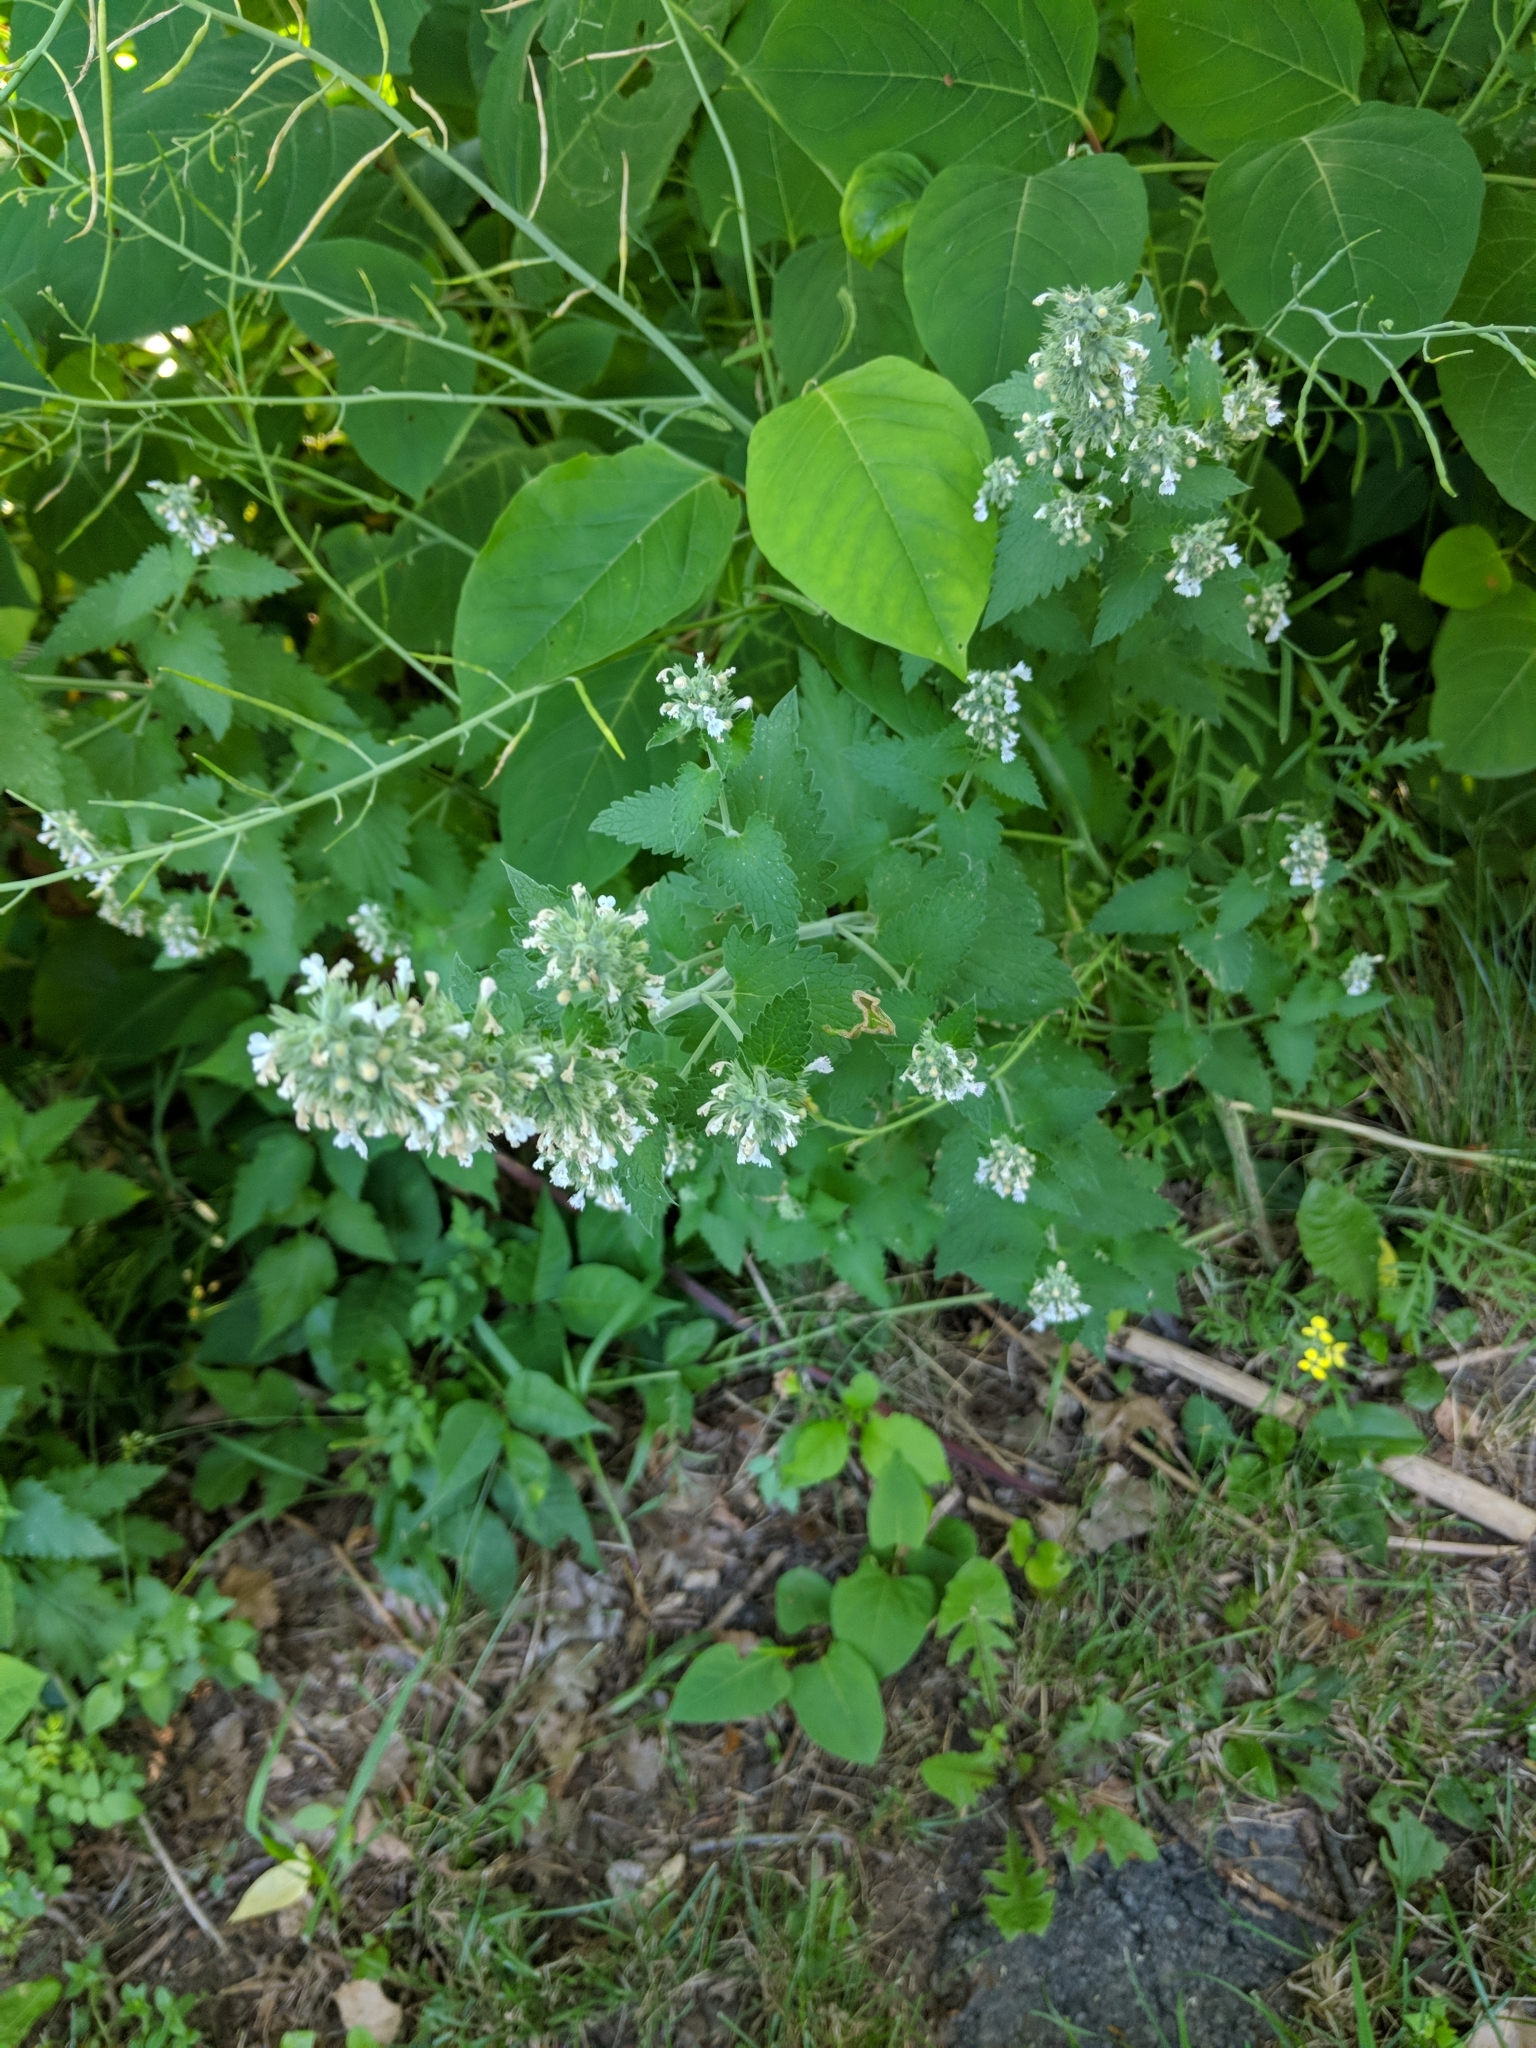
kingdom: Plantae
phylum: Tracheophyta
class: Magnoliopsida
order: Lamiales
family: Lamiaceae
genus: Nepeta
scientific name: Nepeta cataria
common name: Catnip
